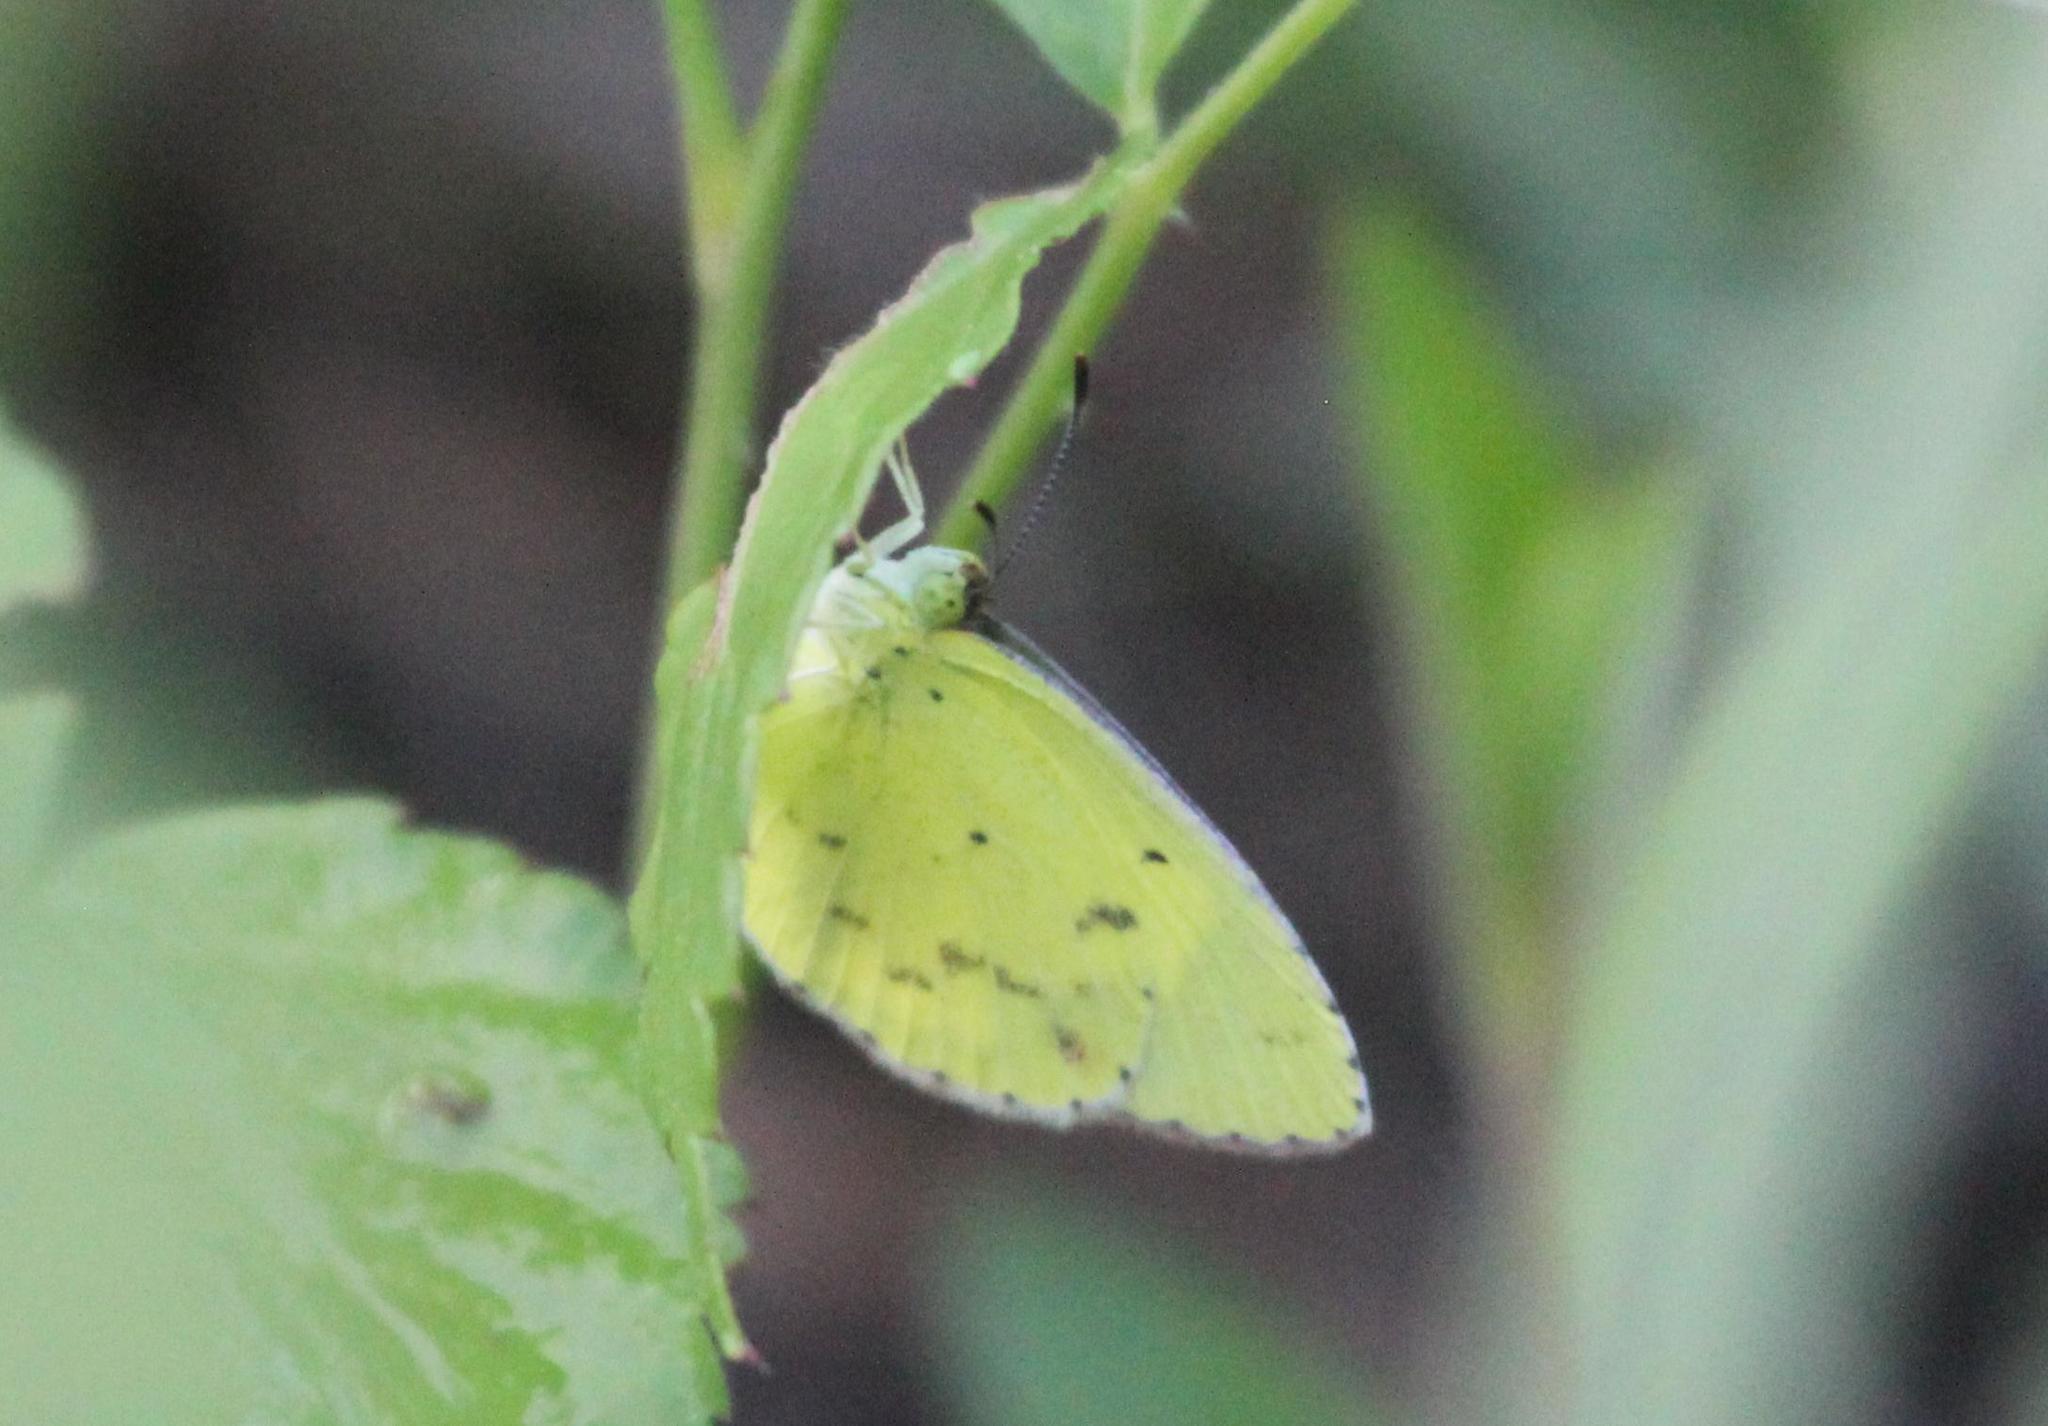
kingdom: Animalia
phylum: Arthropoda
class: Insecta
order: Lepidoptera
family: Pieridae
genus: Pyrisitia
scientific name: Pyrisitia lisa
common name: Little yellow
